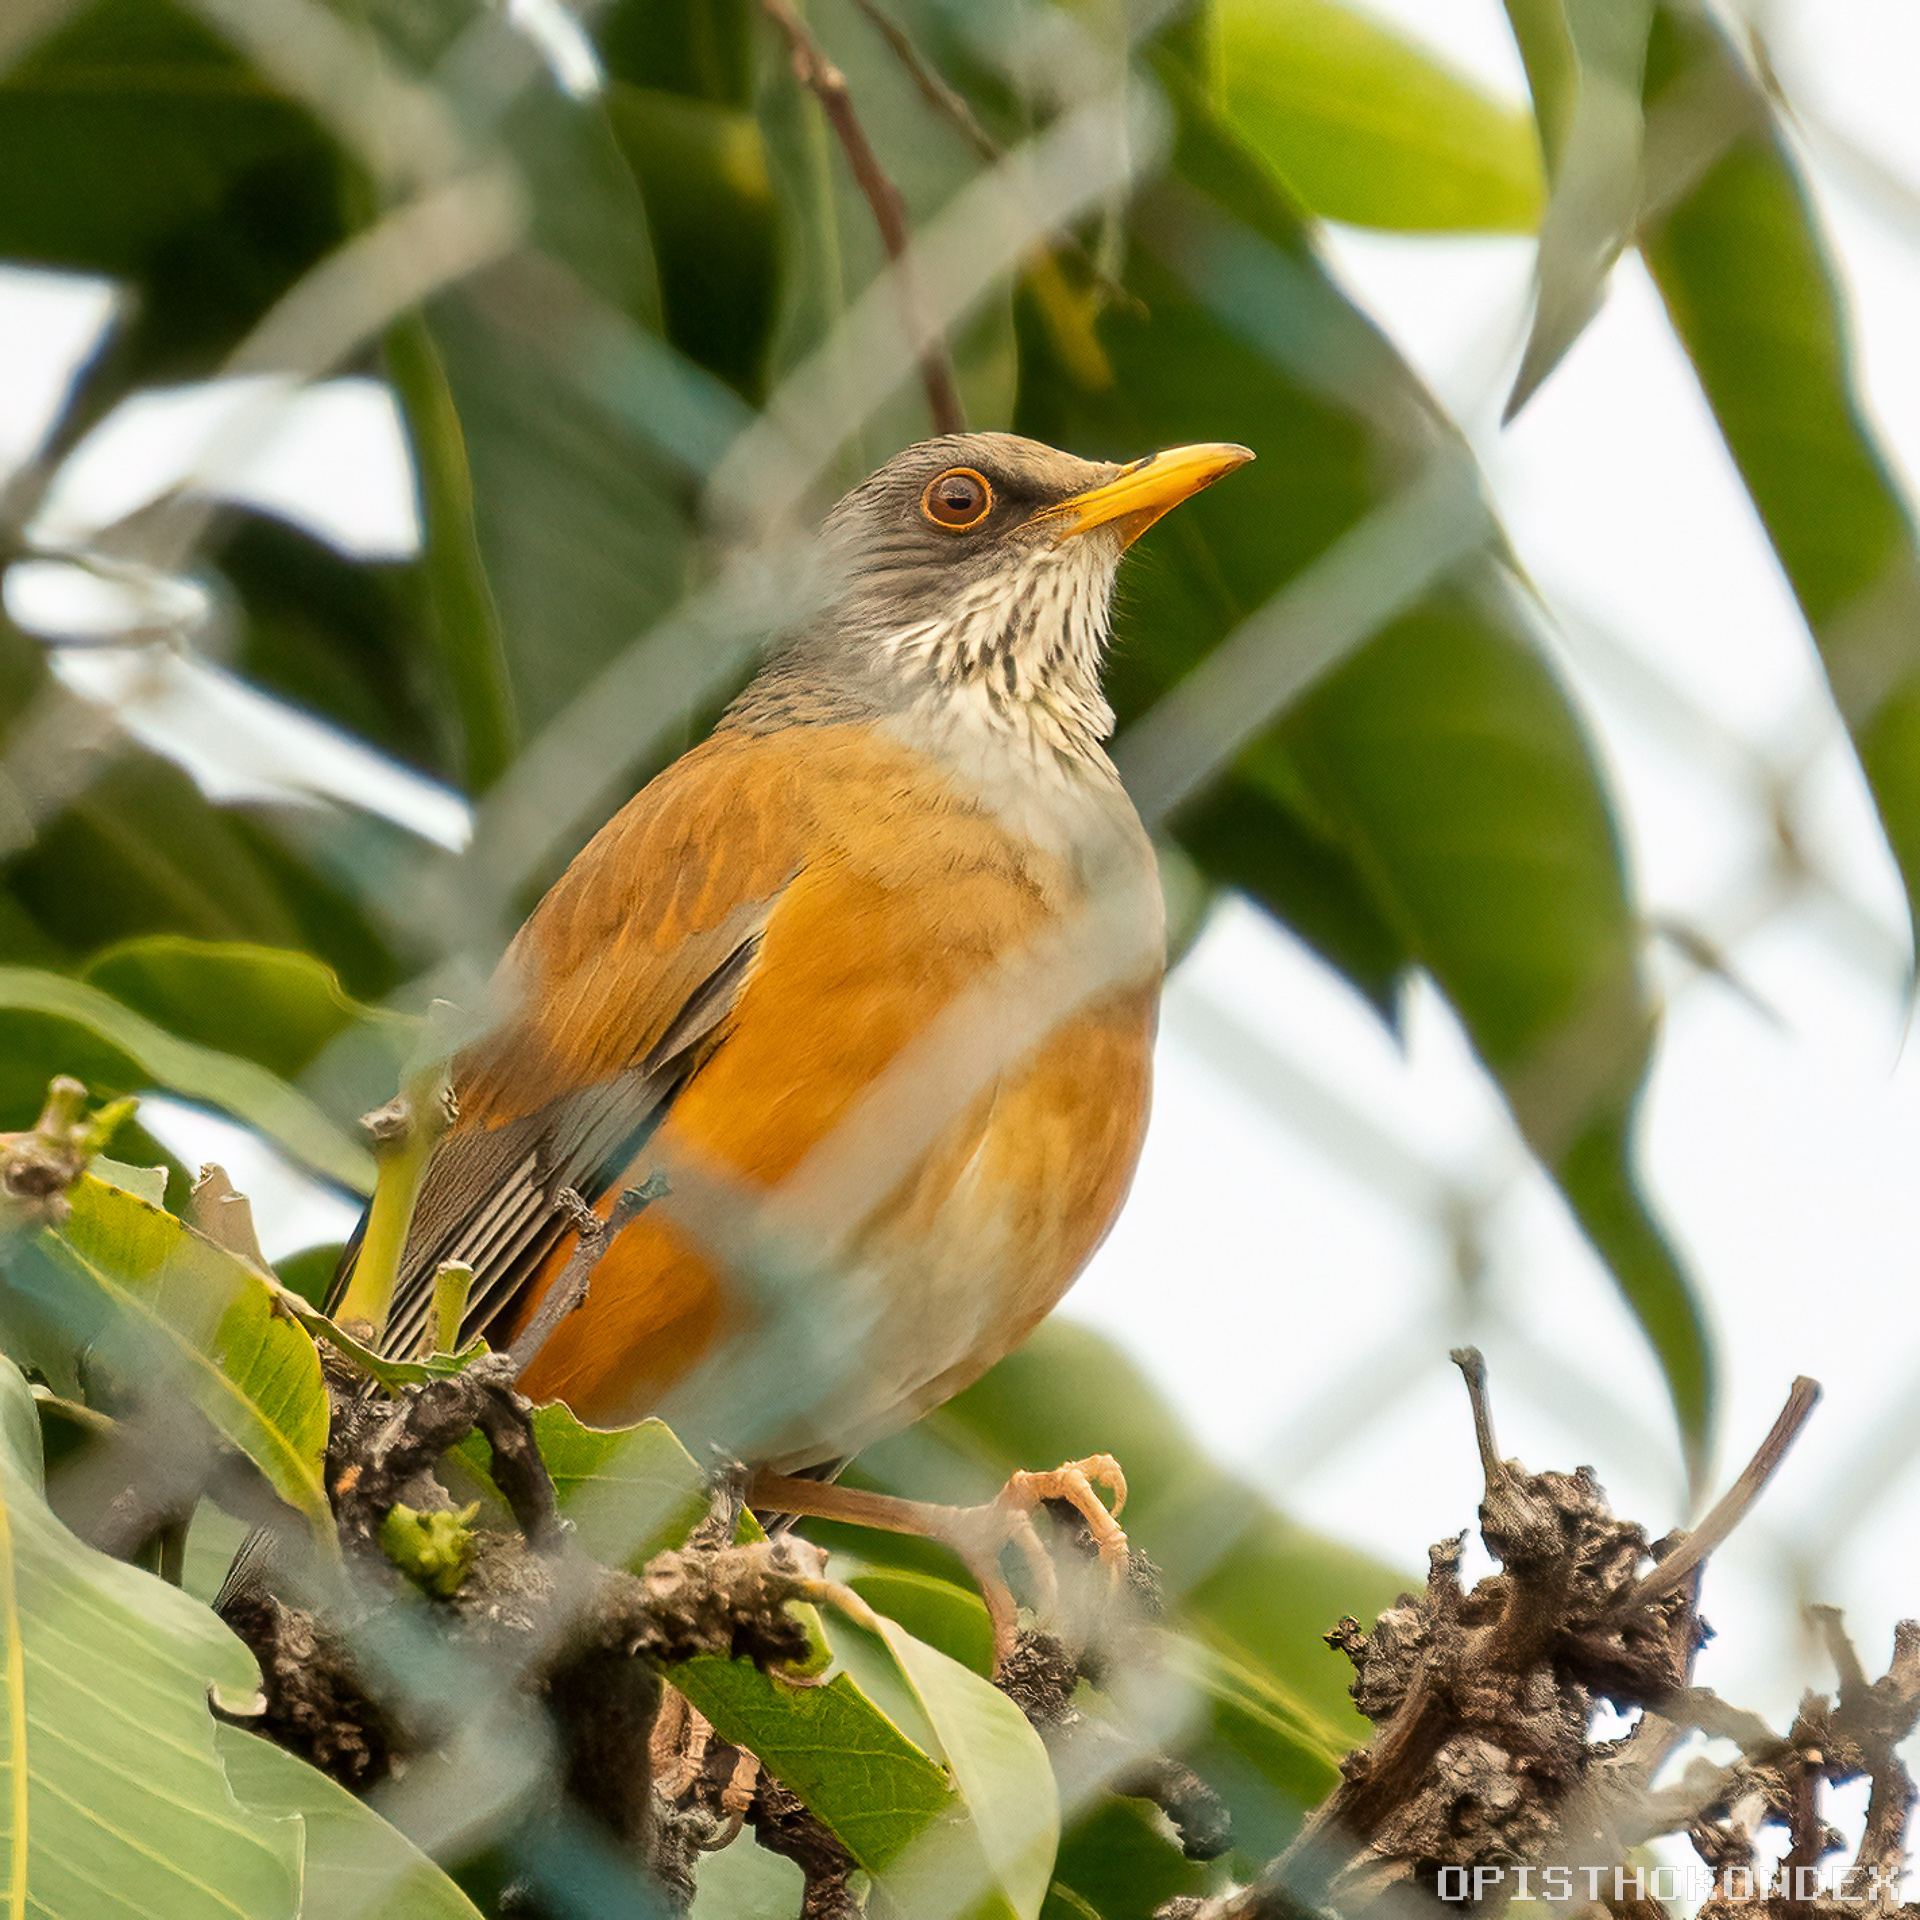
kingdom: Animalia
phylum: Chordata
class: Aves
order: Passeriformes
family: Turdidae
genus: Turdus
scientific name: Turdus rufopalliatus
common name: Rufous-backed robin
